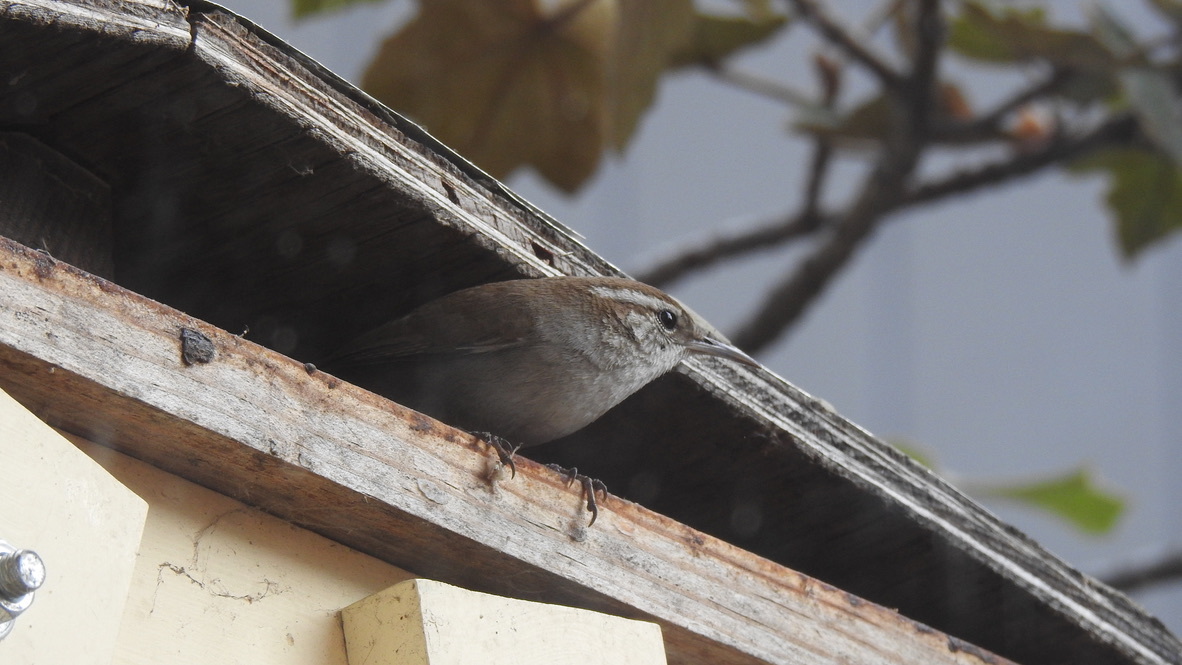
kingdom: Animalia
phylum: Chordata
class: Aves
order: Passeriformes
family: Troglodytidae
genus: Thryomanes
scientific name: Thryomanes bewickii
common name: Bewick's wren
